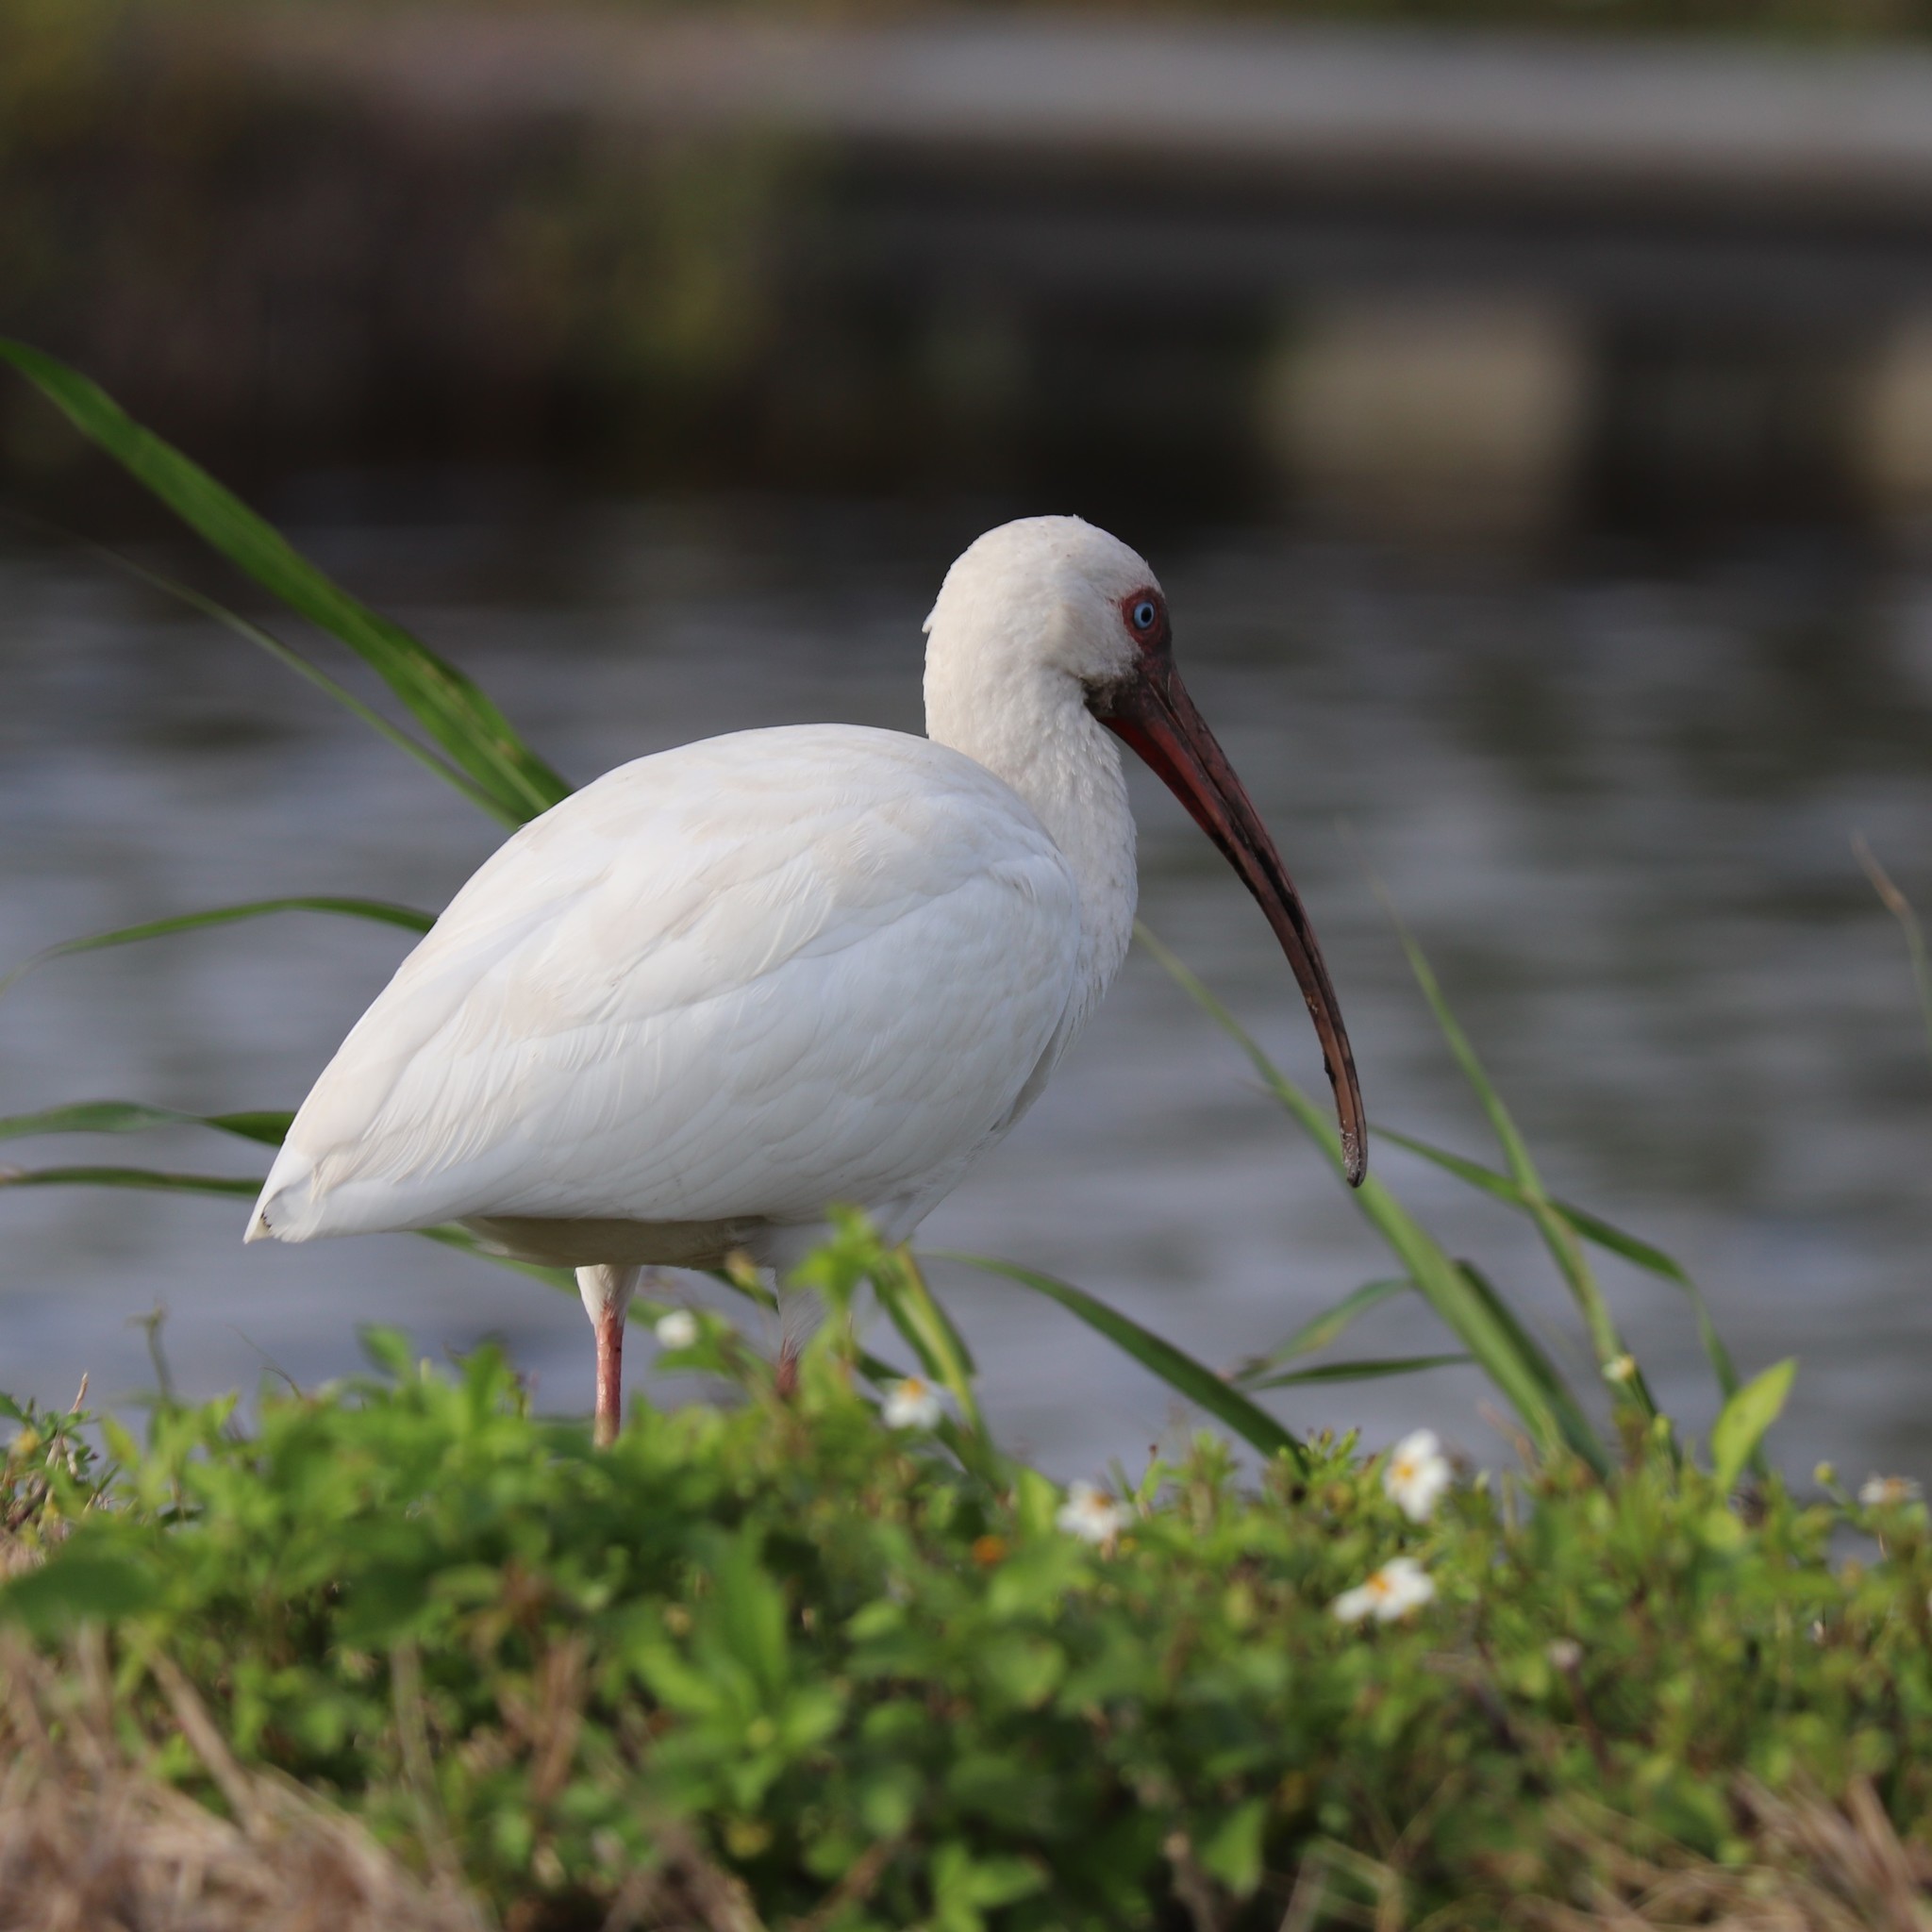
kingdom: Animalia
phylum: Chordata
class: Aves
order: Pelecaniformes
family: Threskiornithidae
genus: Eudocimus
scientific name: Eudocimus albus
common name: White ibis
